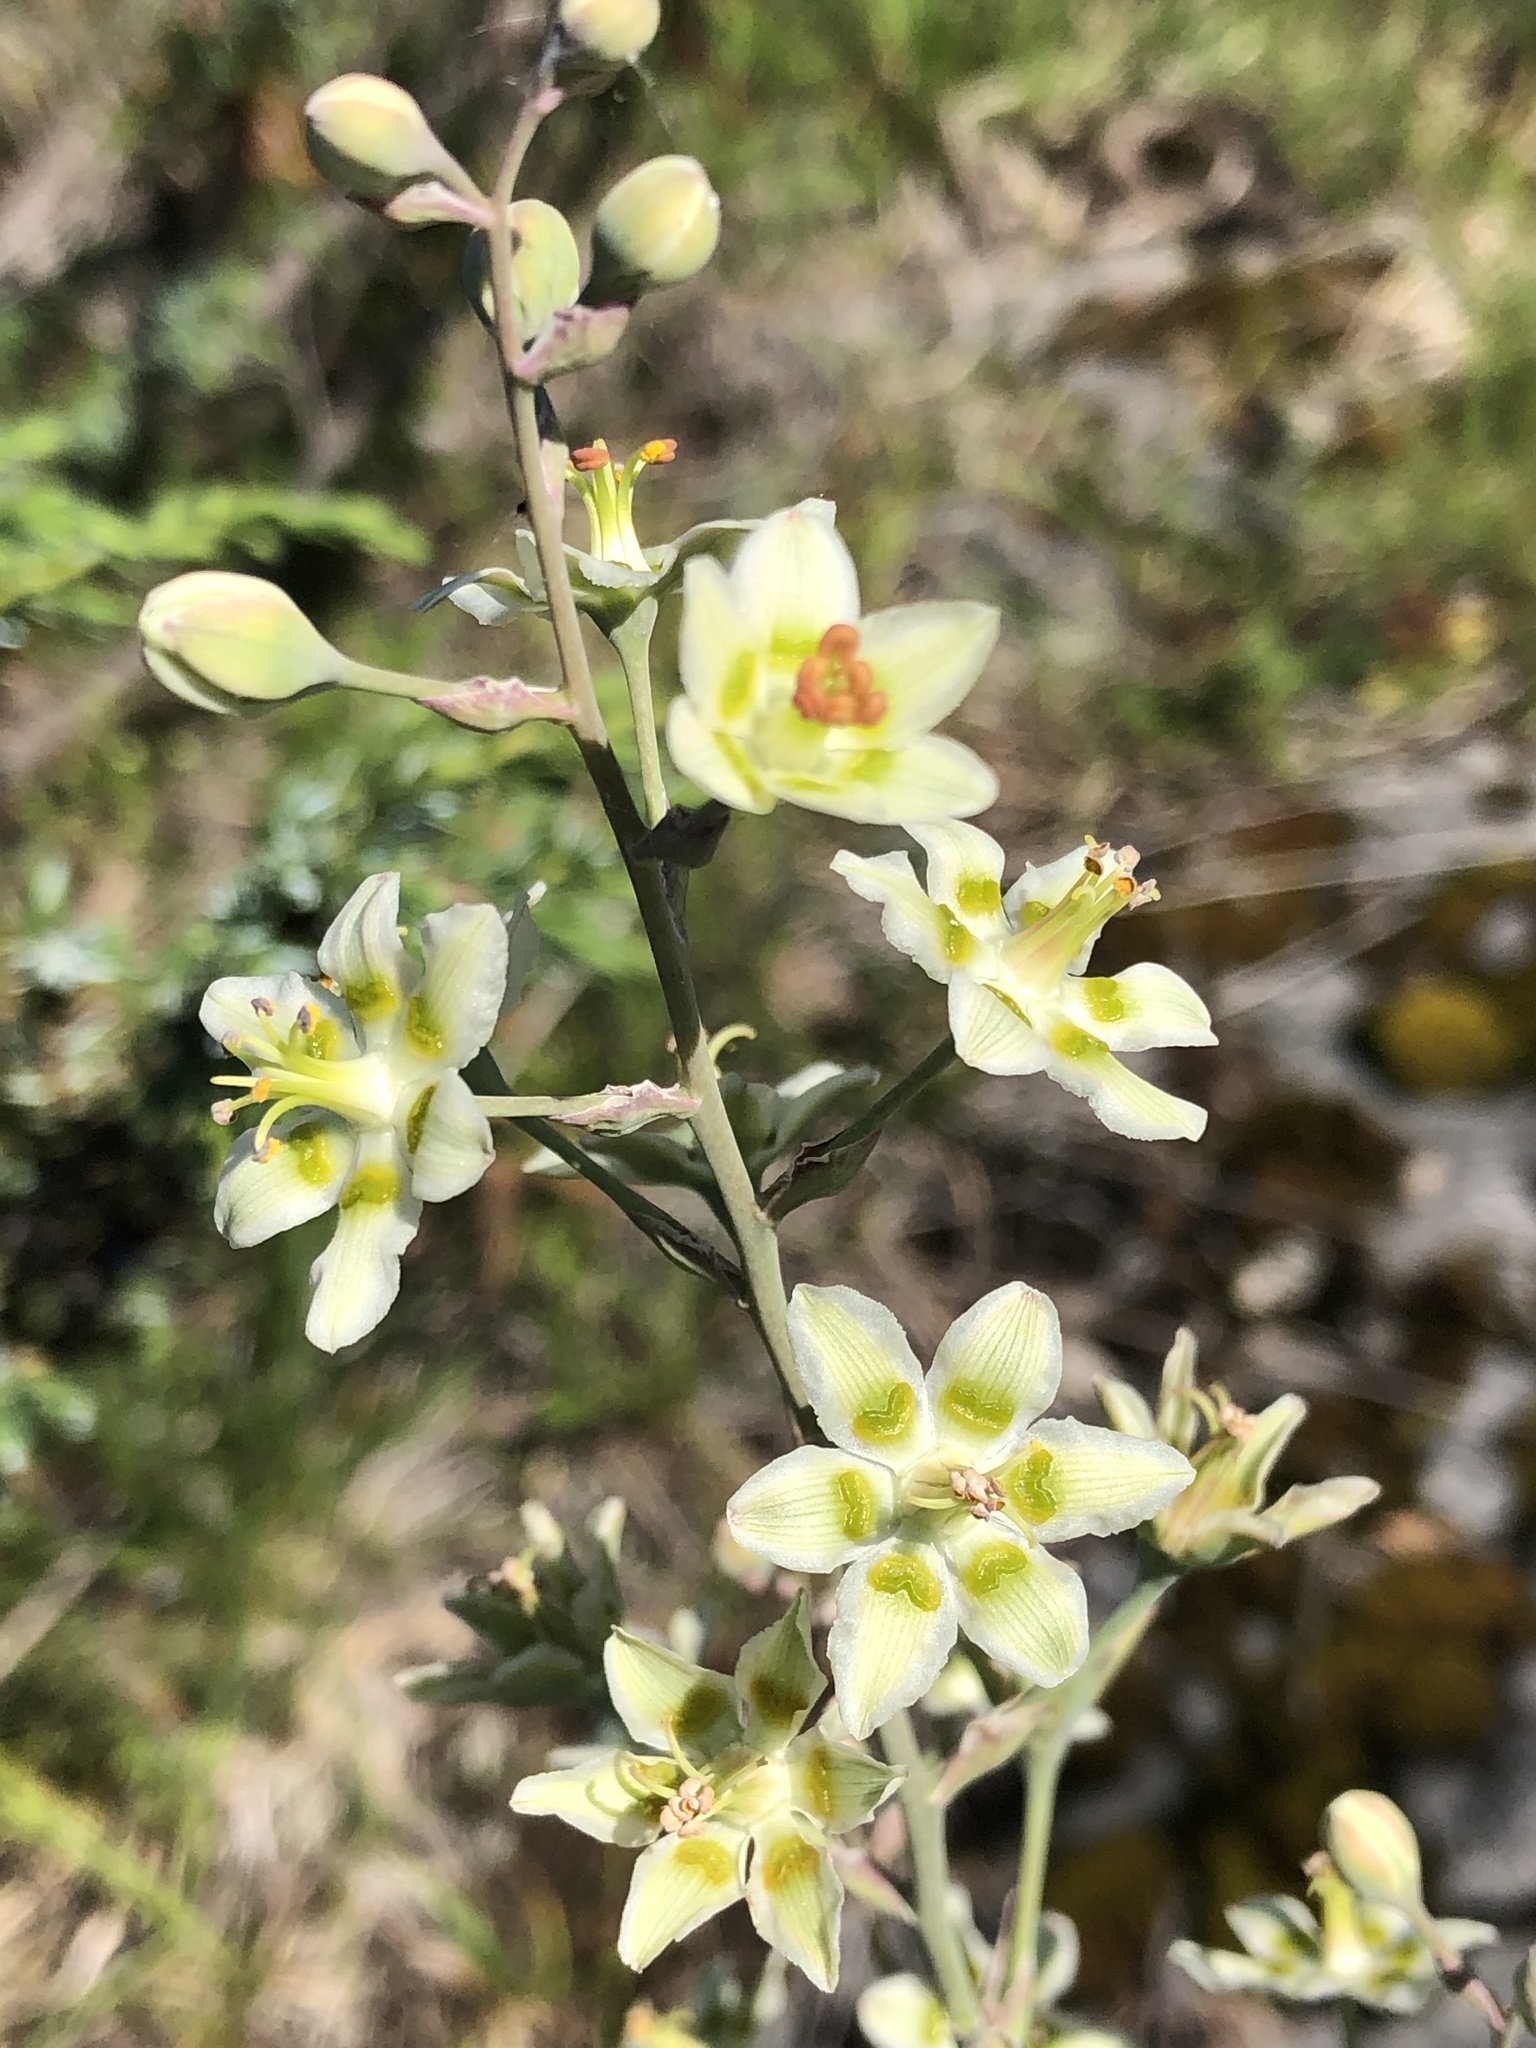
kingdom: Plantae
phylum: Tracheophyta
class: Liliopsida
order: Liliales
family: Melanthiaceae
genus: Anticlea
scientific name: Anticlea elegans
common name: Mountain death camas
